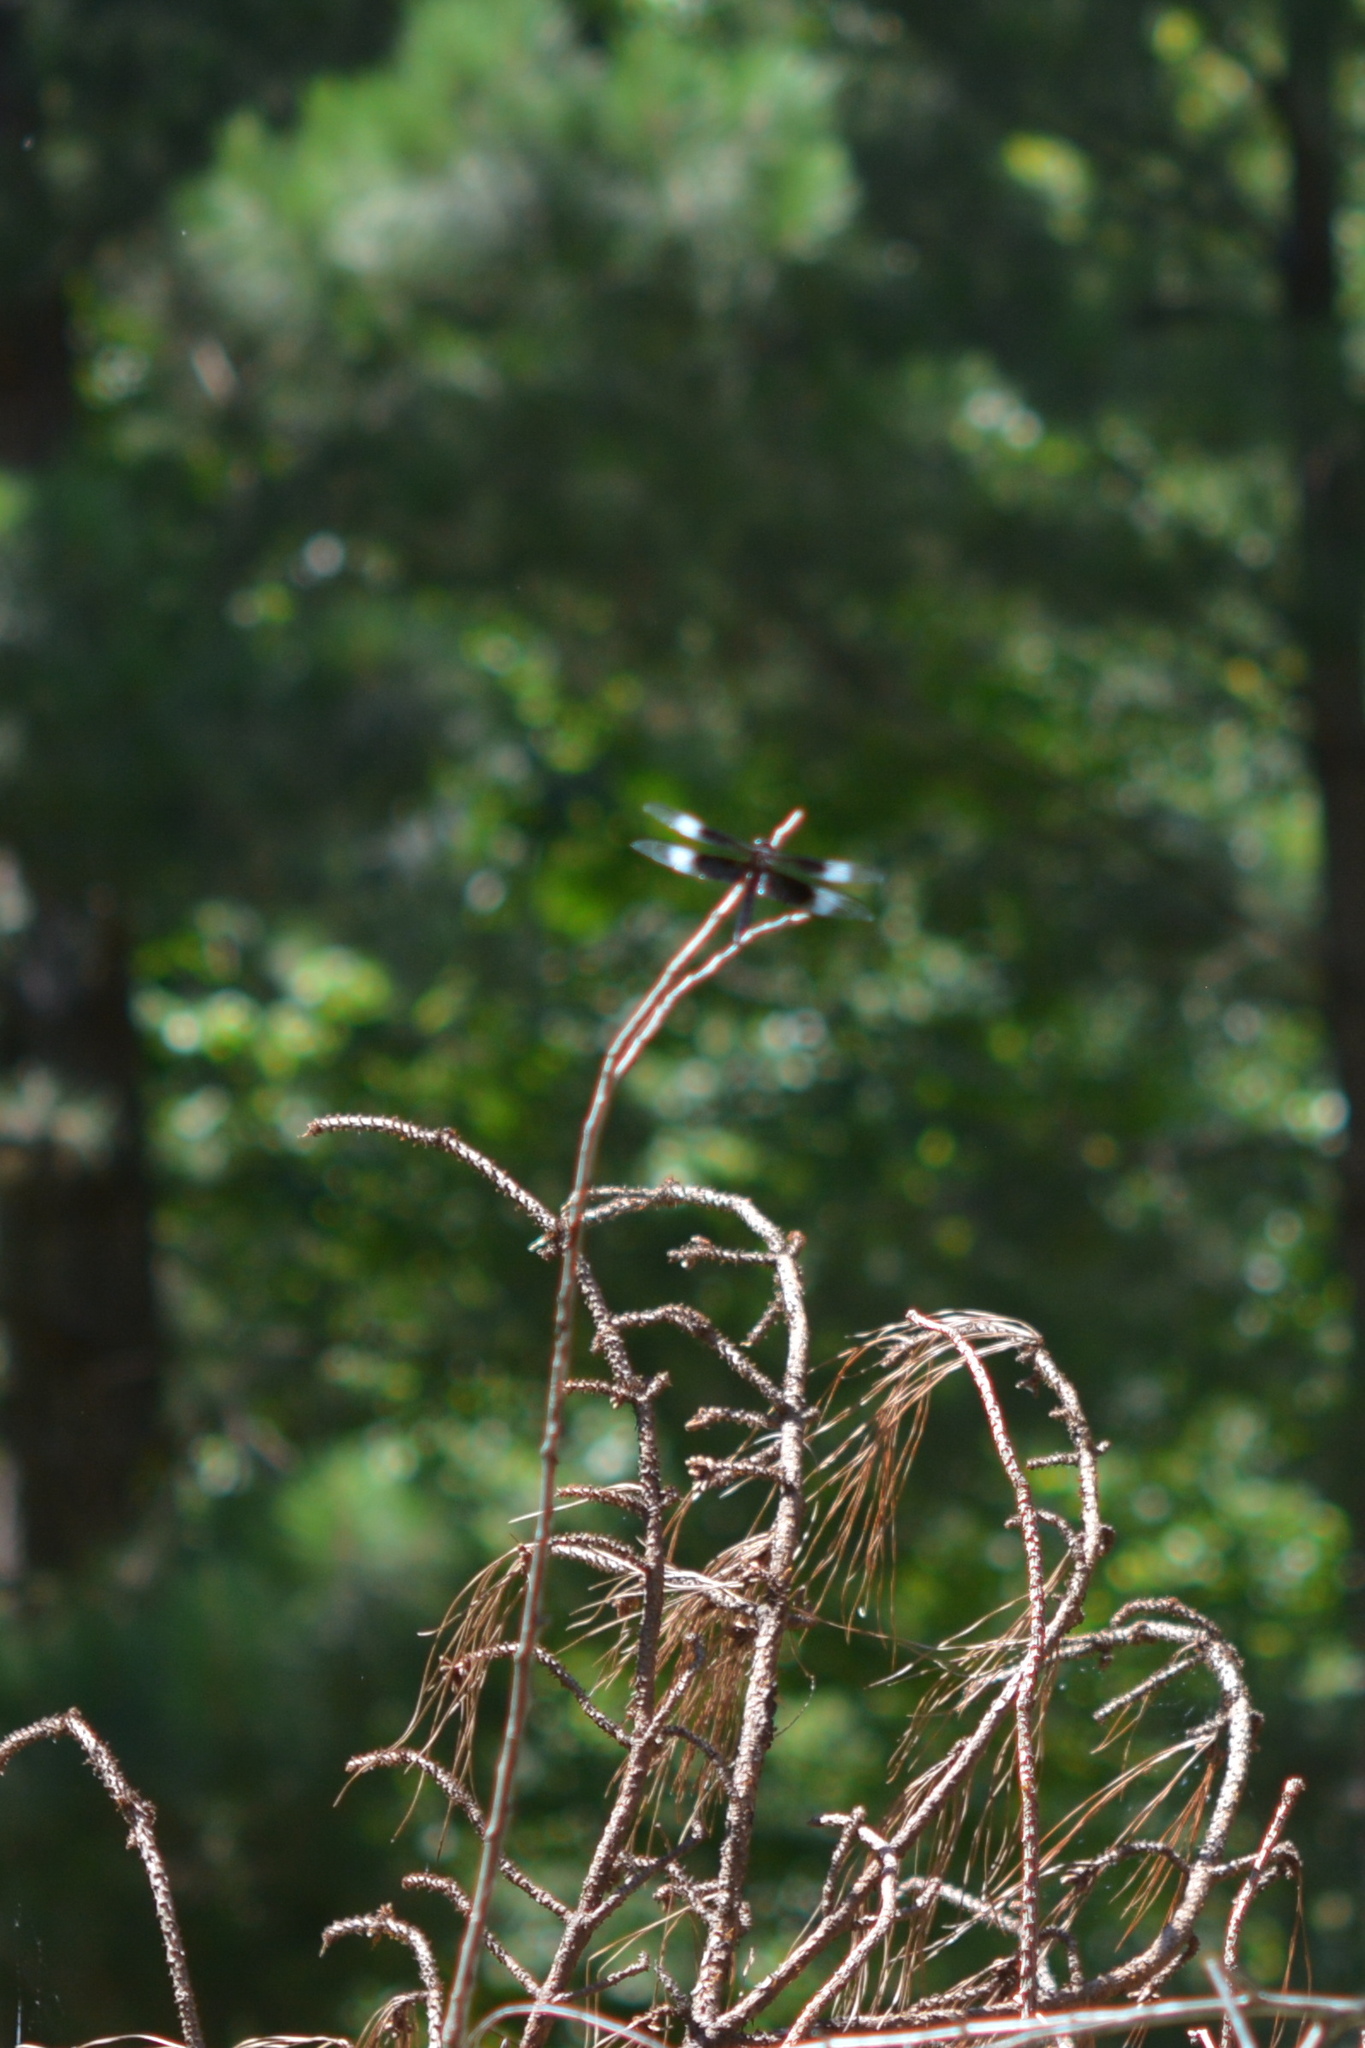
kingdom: Animalia
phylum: Arthropoda
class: Insecta
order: Odonata
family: Libellulidae
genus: Libellula
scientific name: Libellula luctuosa
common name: Widow skimmer
